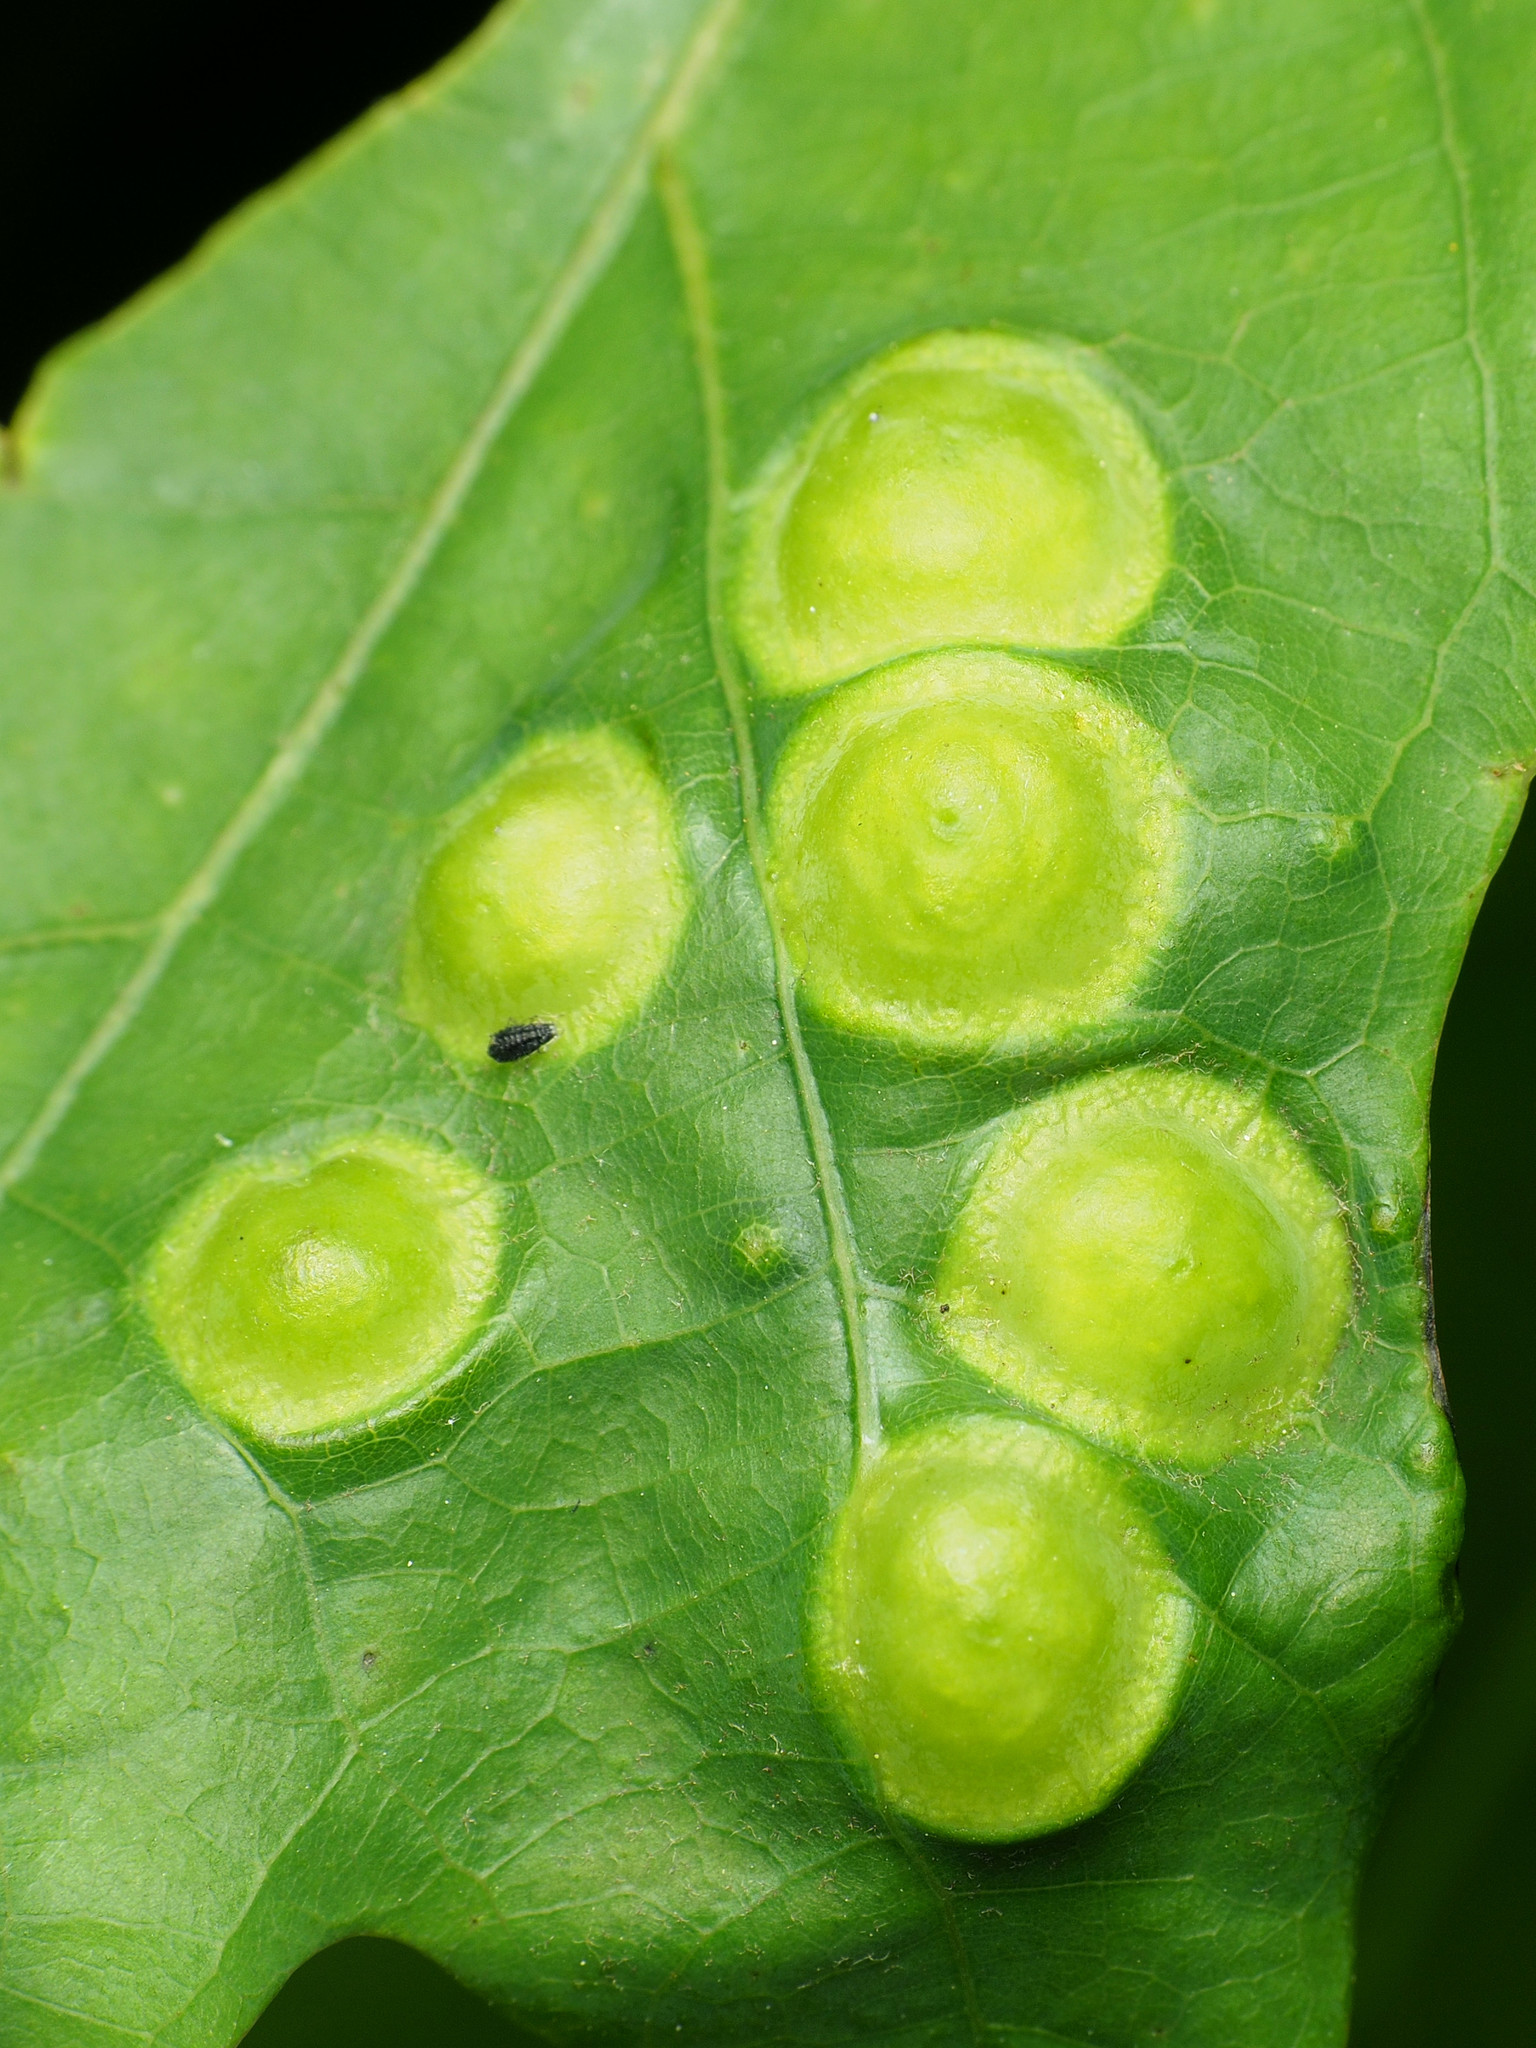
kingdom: Animalia
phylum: Arthropoda
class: Insecta
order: Hymenoptera
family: Cynipidae
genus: Callirhytis
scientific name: Callirhytis
